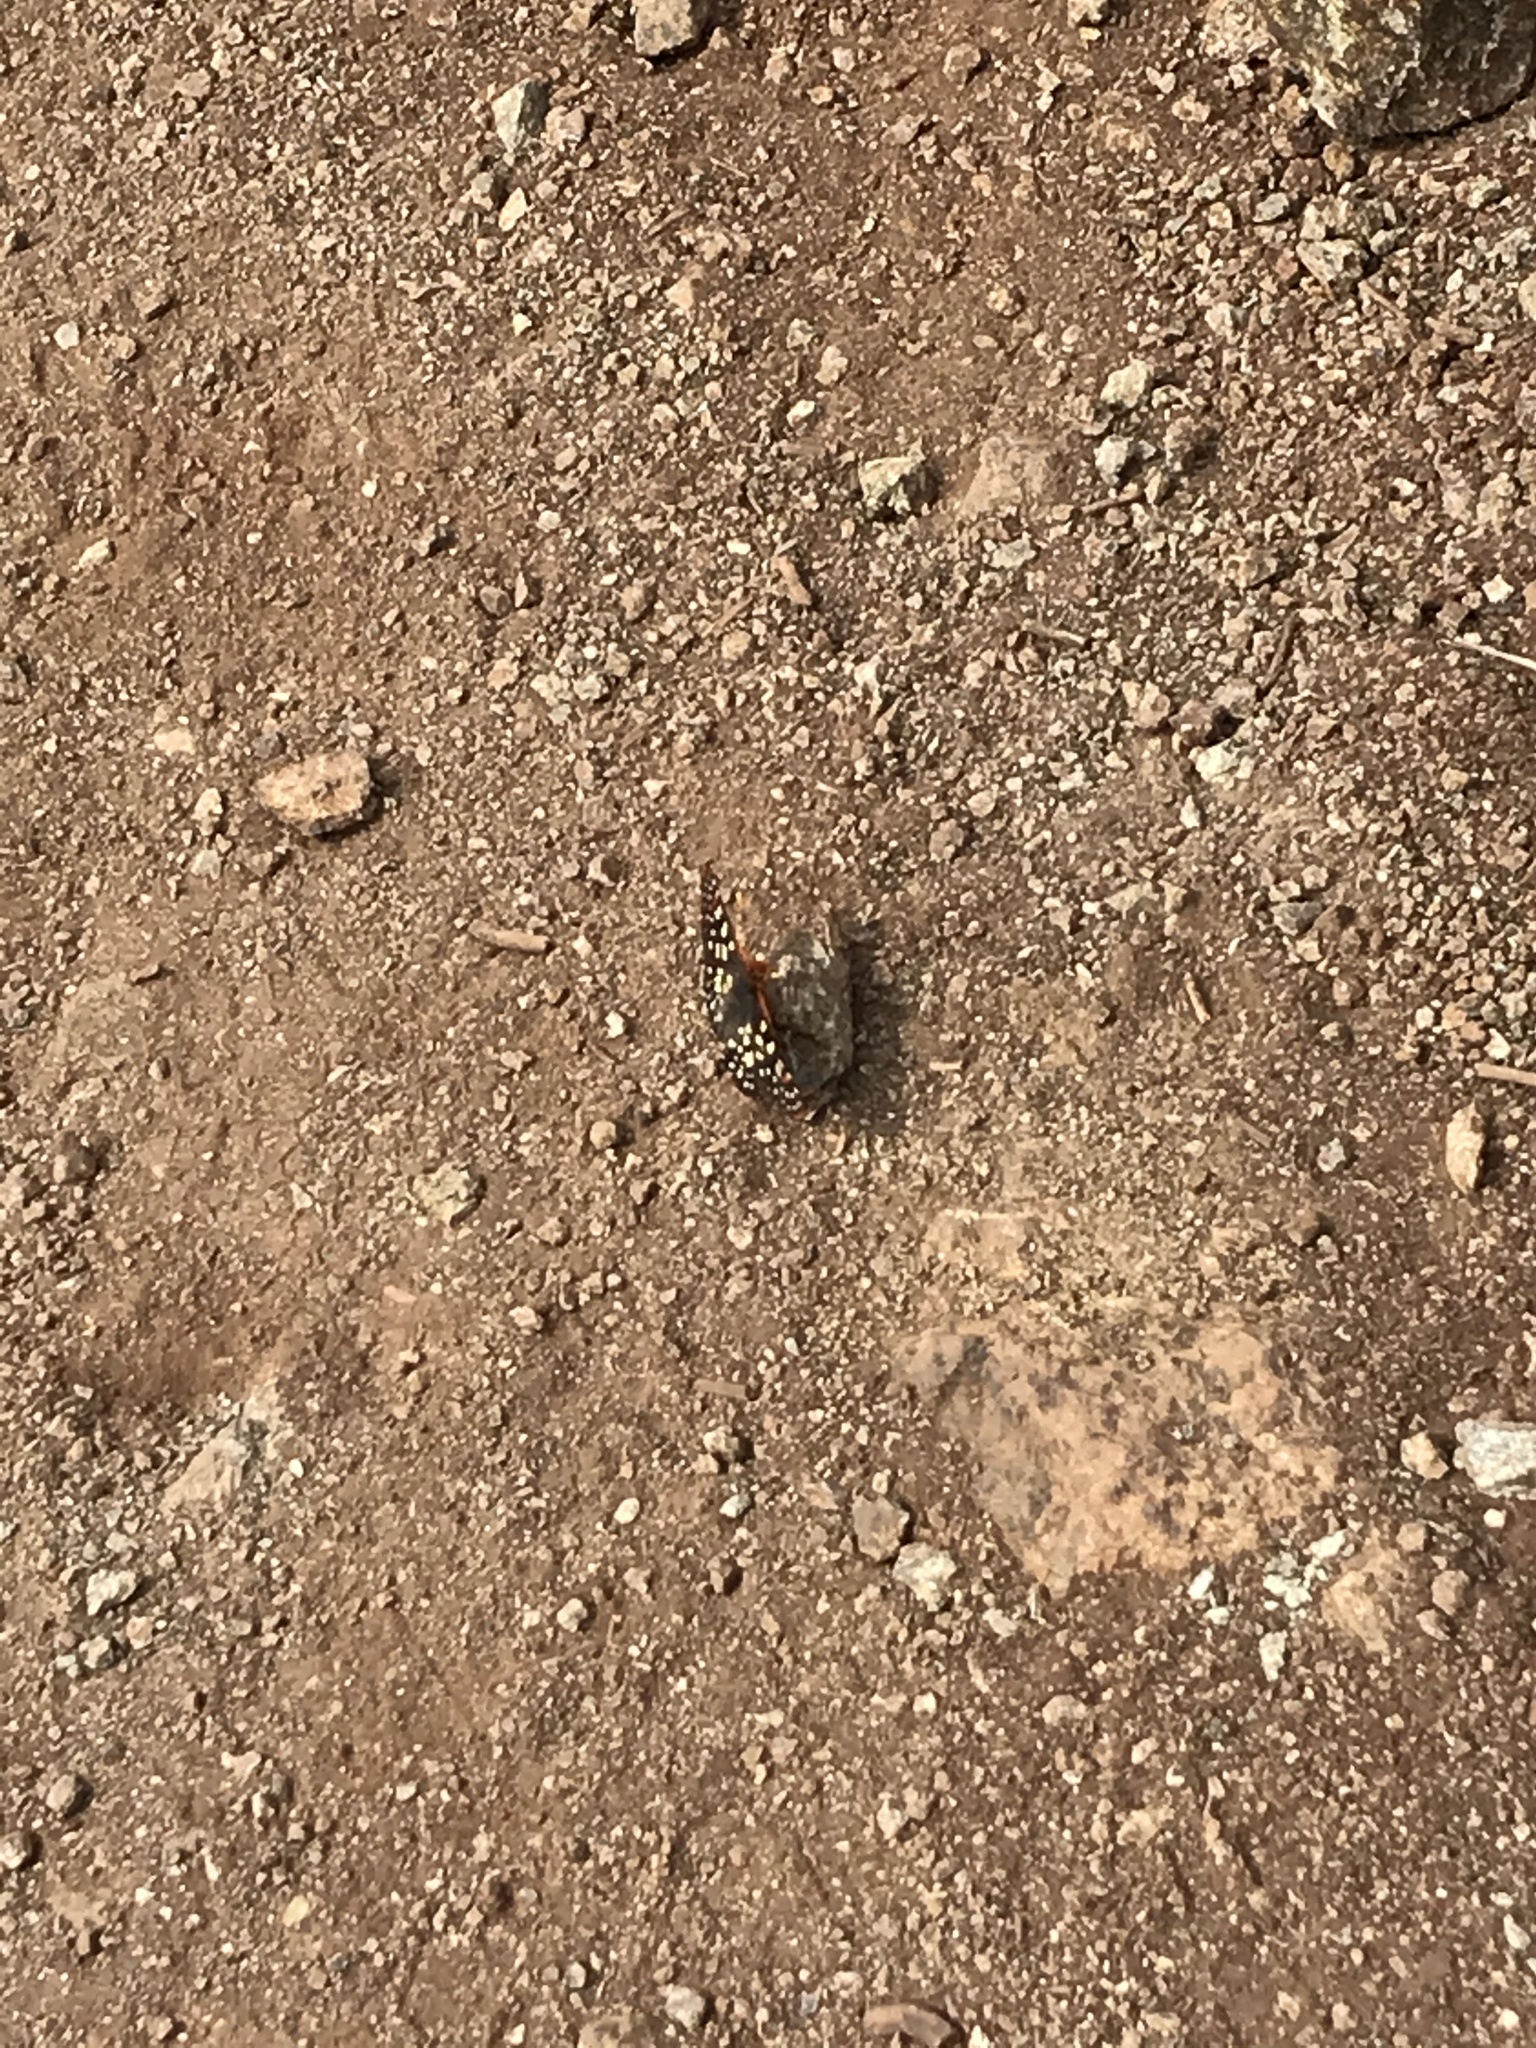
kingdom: Animalia
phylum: Arthropoda
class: Insecta
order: Lepidoptera
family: Nymphalidae
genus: Occidryas
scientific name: Occidryas chalcedona
